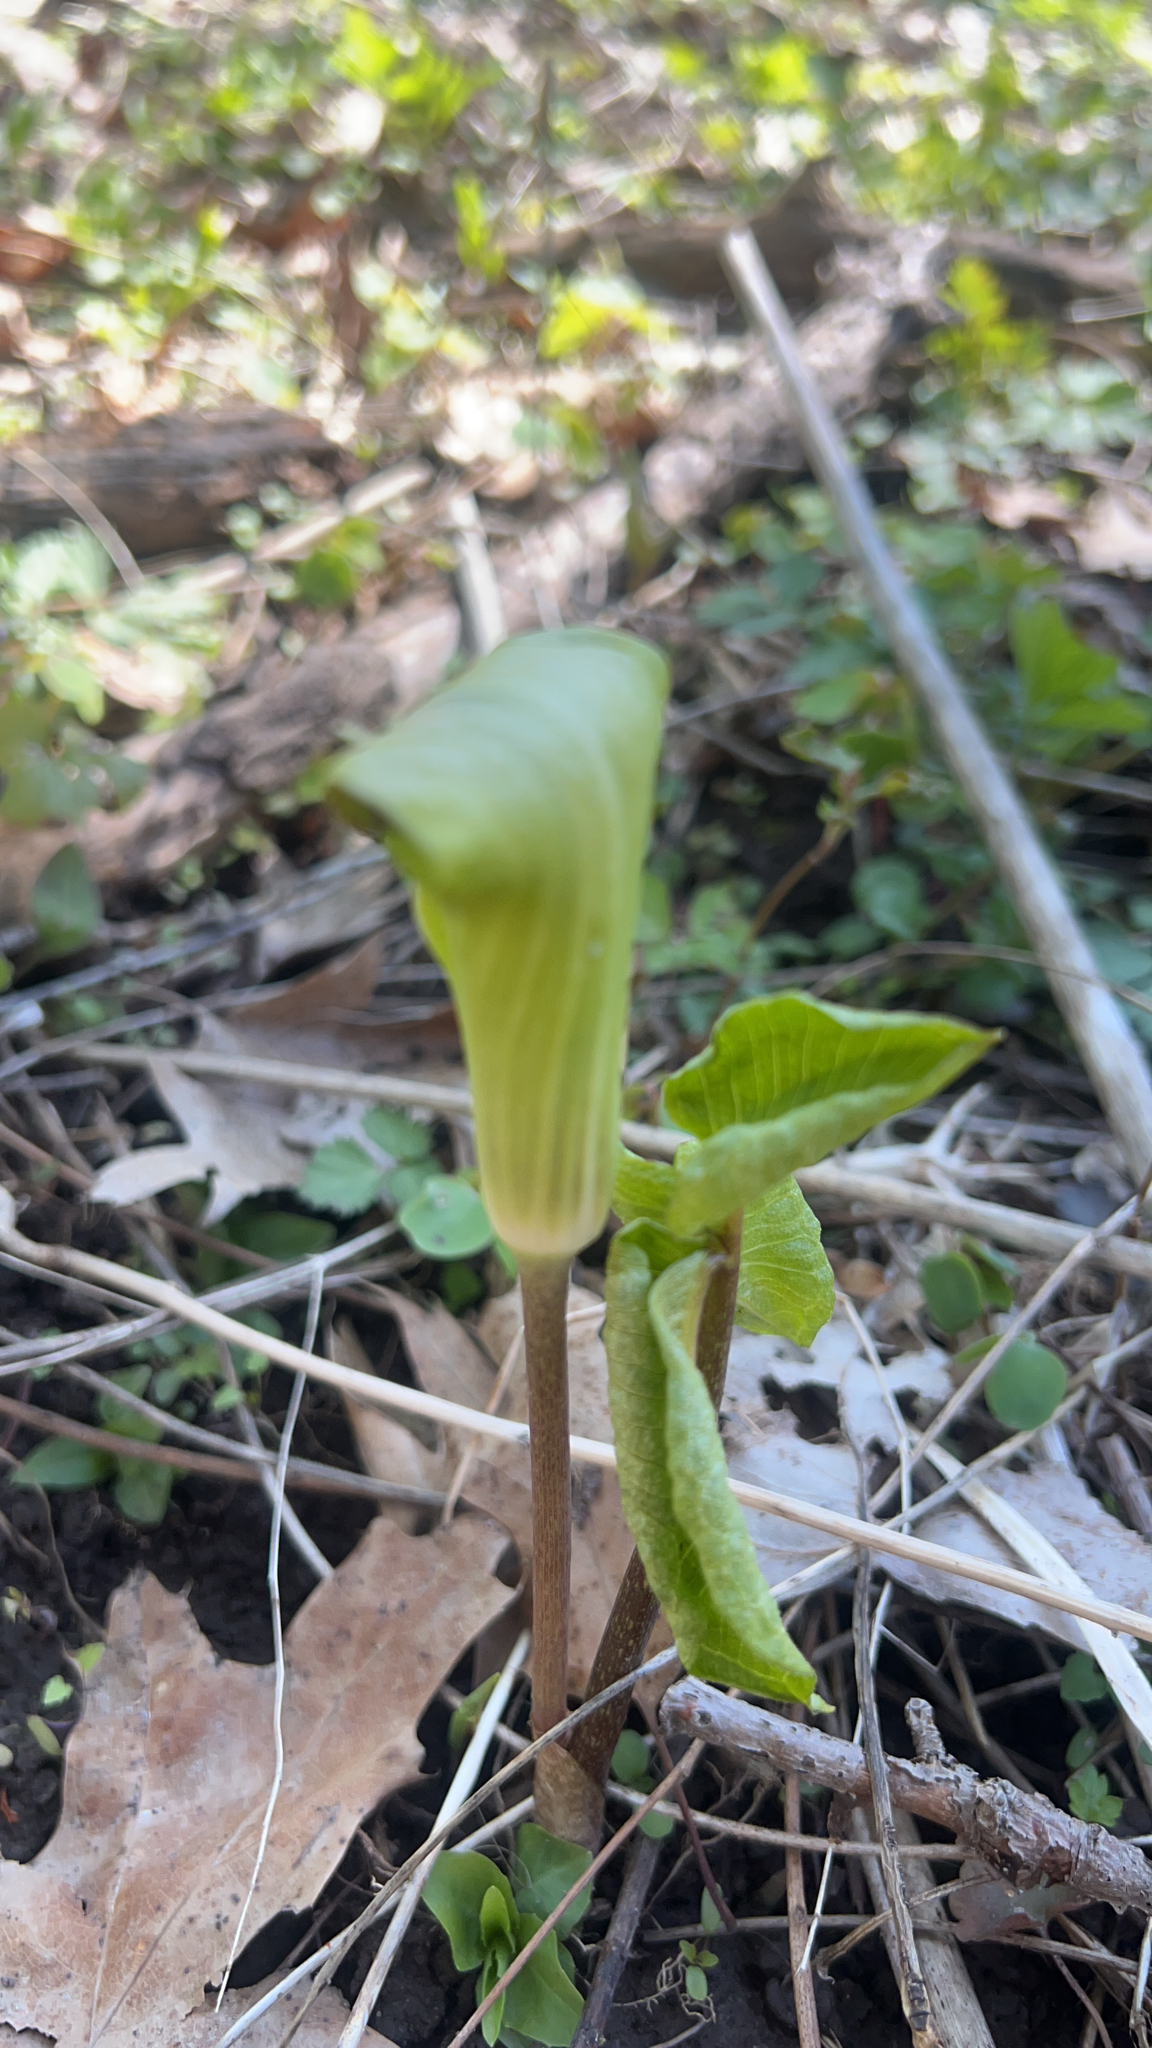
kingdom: Plantae
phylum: Tracheophyta
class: Liliopsida
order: Alismatales
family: Araceae
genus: Arisaema
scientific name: Arisaema triphyllum
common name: Jack-in-the-pulpit
